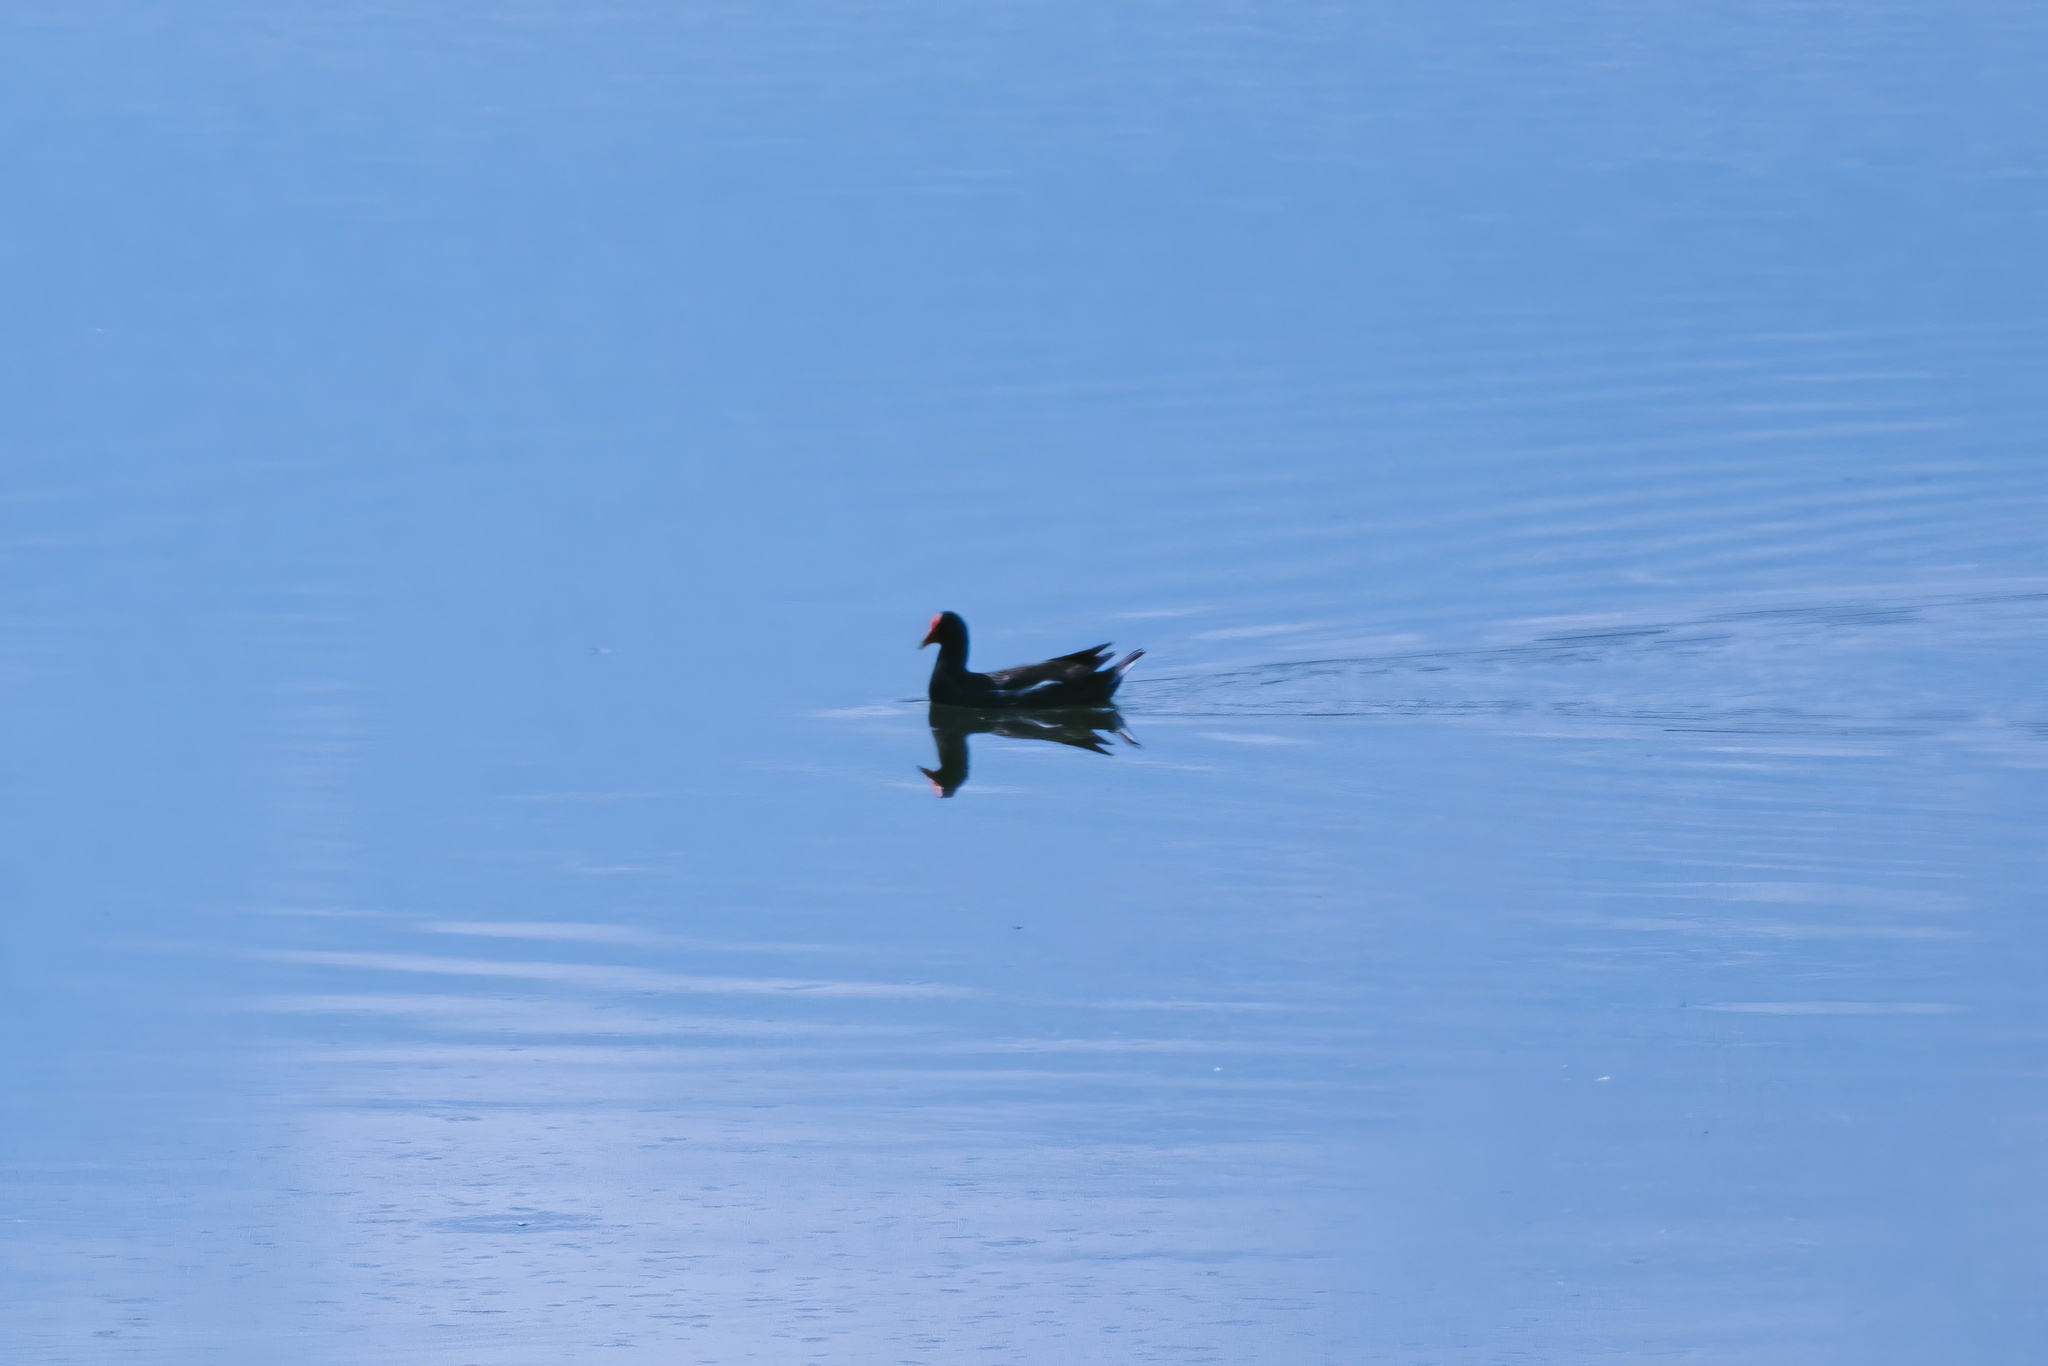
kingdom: Animalia
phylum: Chordata
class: Aves
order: Gruiformes
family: Rallidae
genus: Gallinula
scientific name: Gallinula chloropus
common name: Common moorhen
